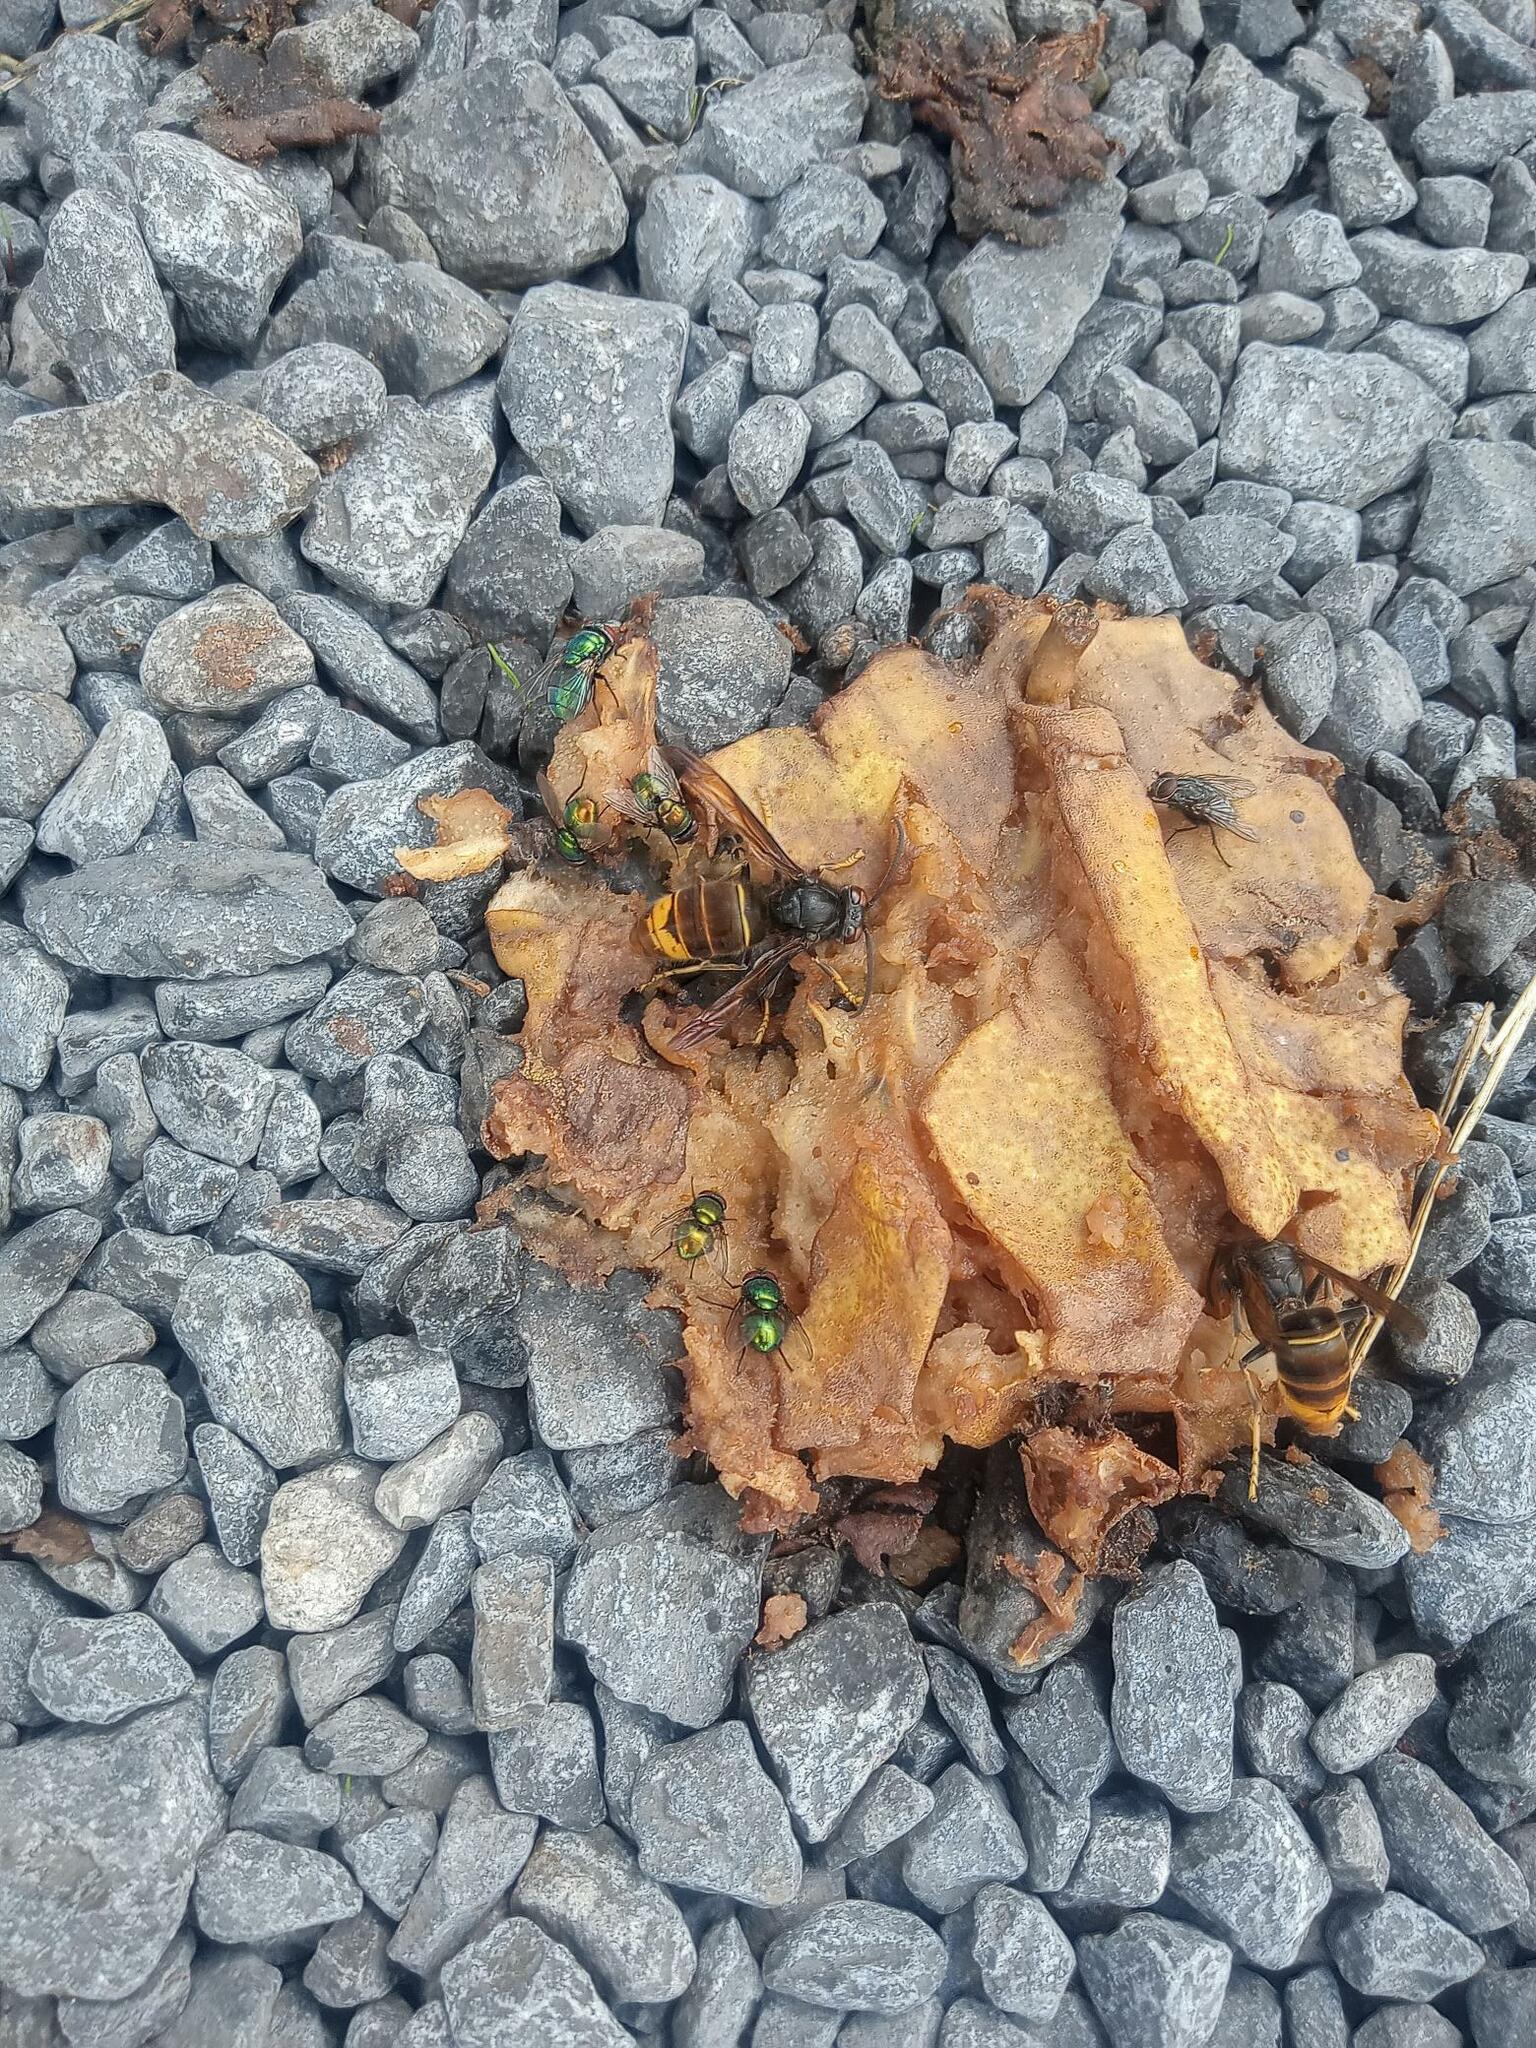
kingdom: Animalia
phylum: Arthropoda
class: Insecta
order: Hymenoptera
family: Vespidae
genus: Vespa
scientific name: Vespa velutina
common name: Asian hornet
